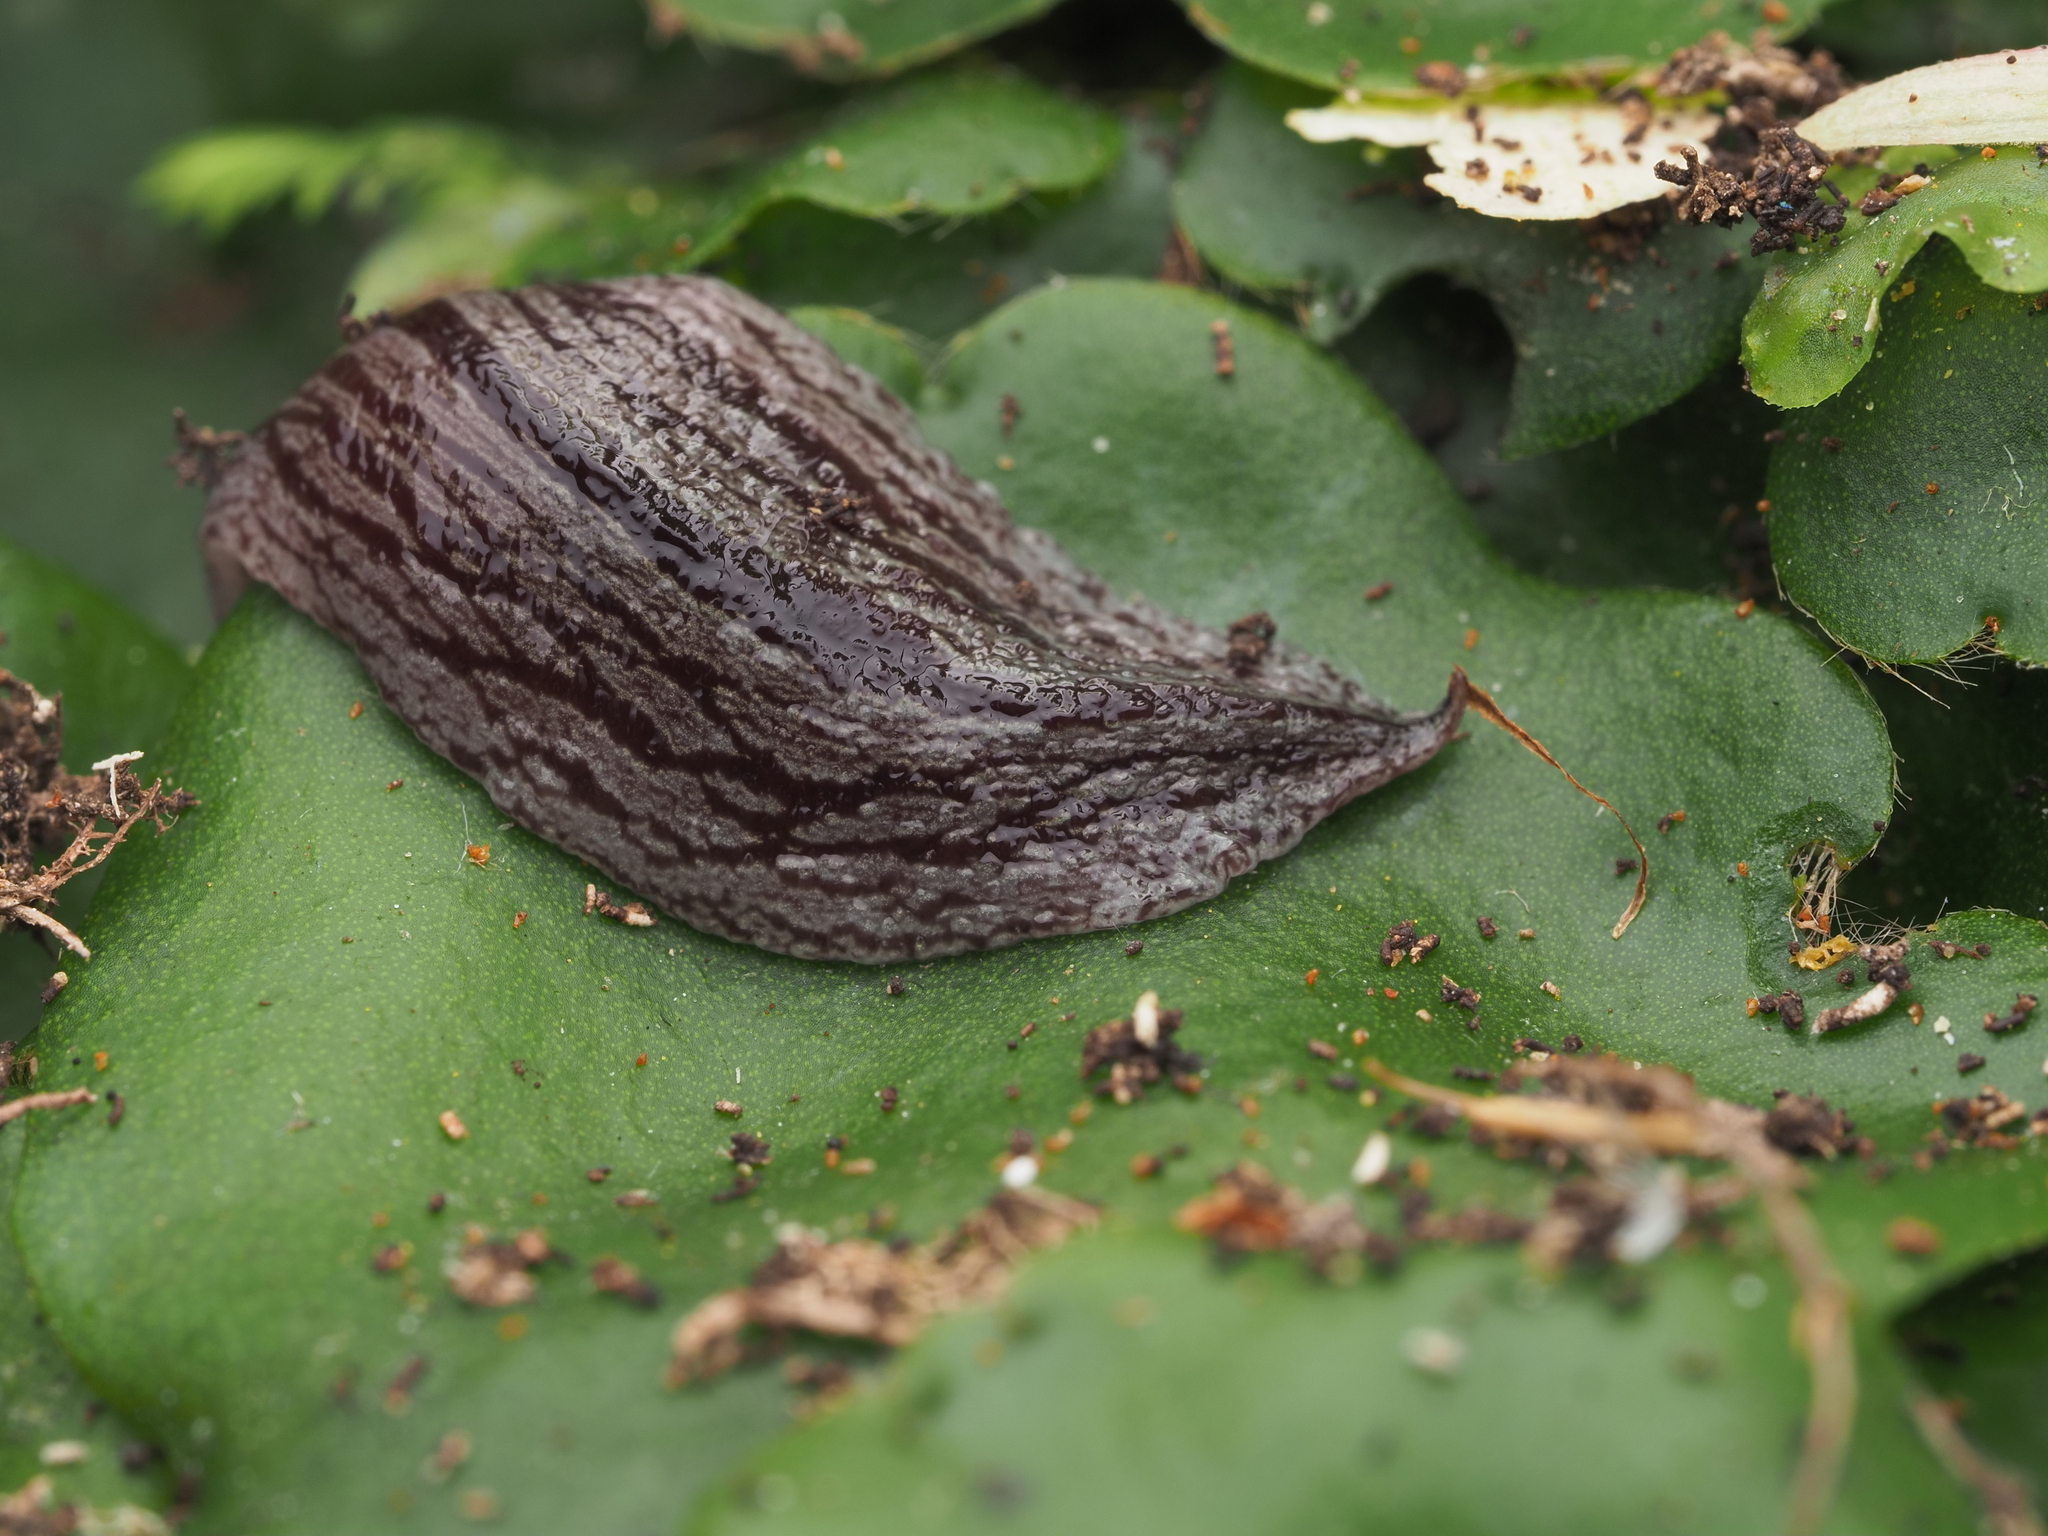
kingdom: Animalia
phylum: Platyhelminthes
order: Tricladida
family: Geoplanidae
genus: Artioposthia
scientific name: Artioposthia exulans
